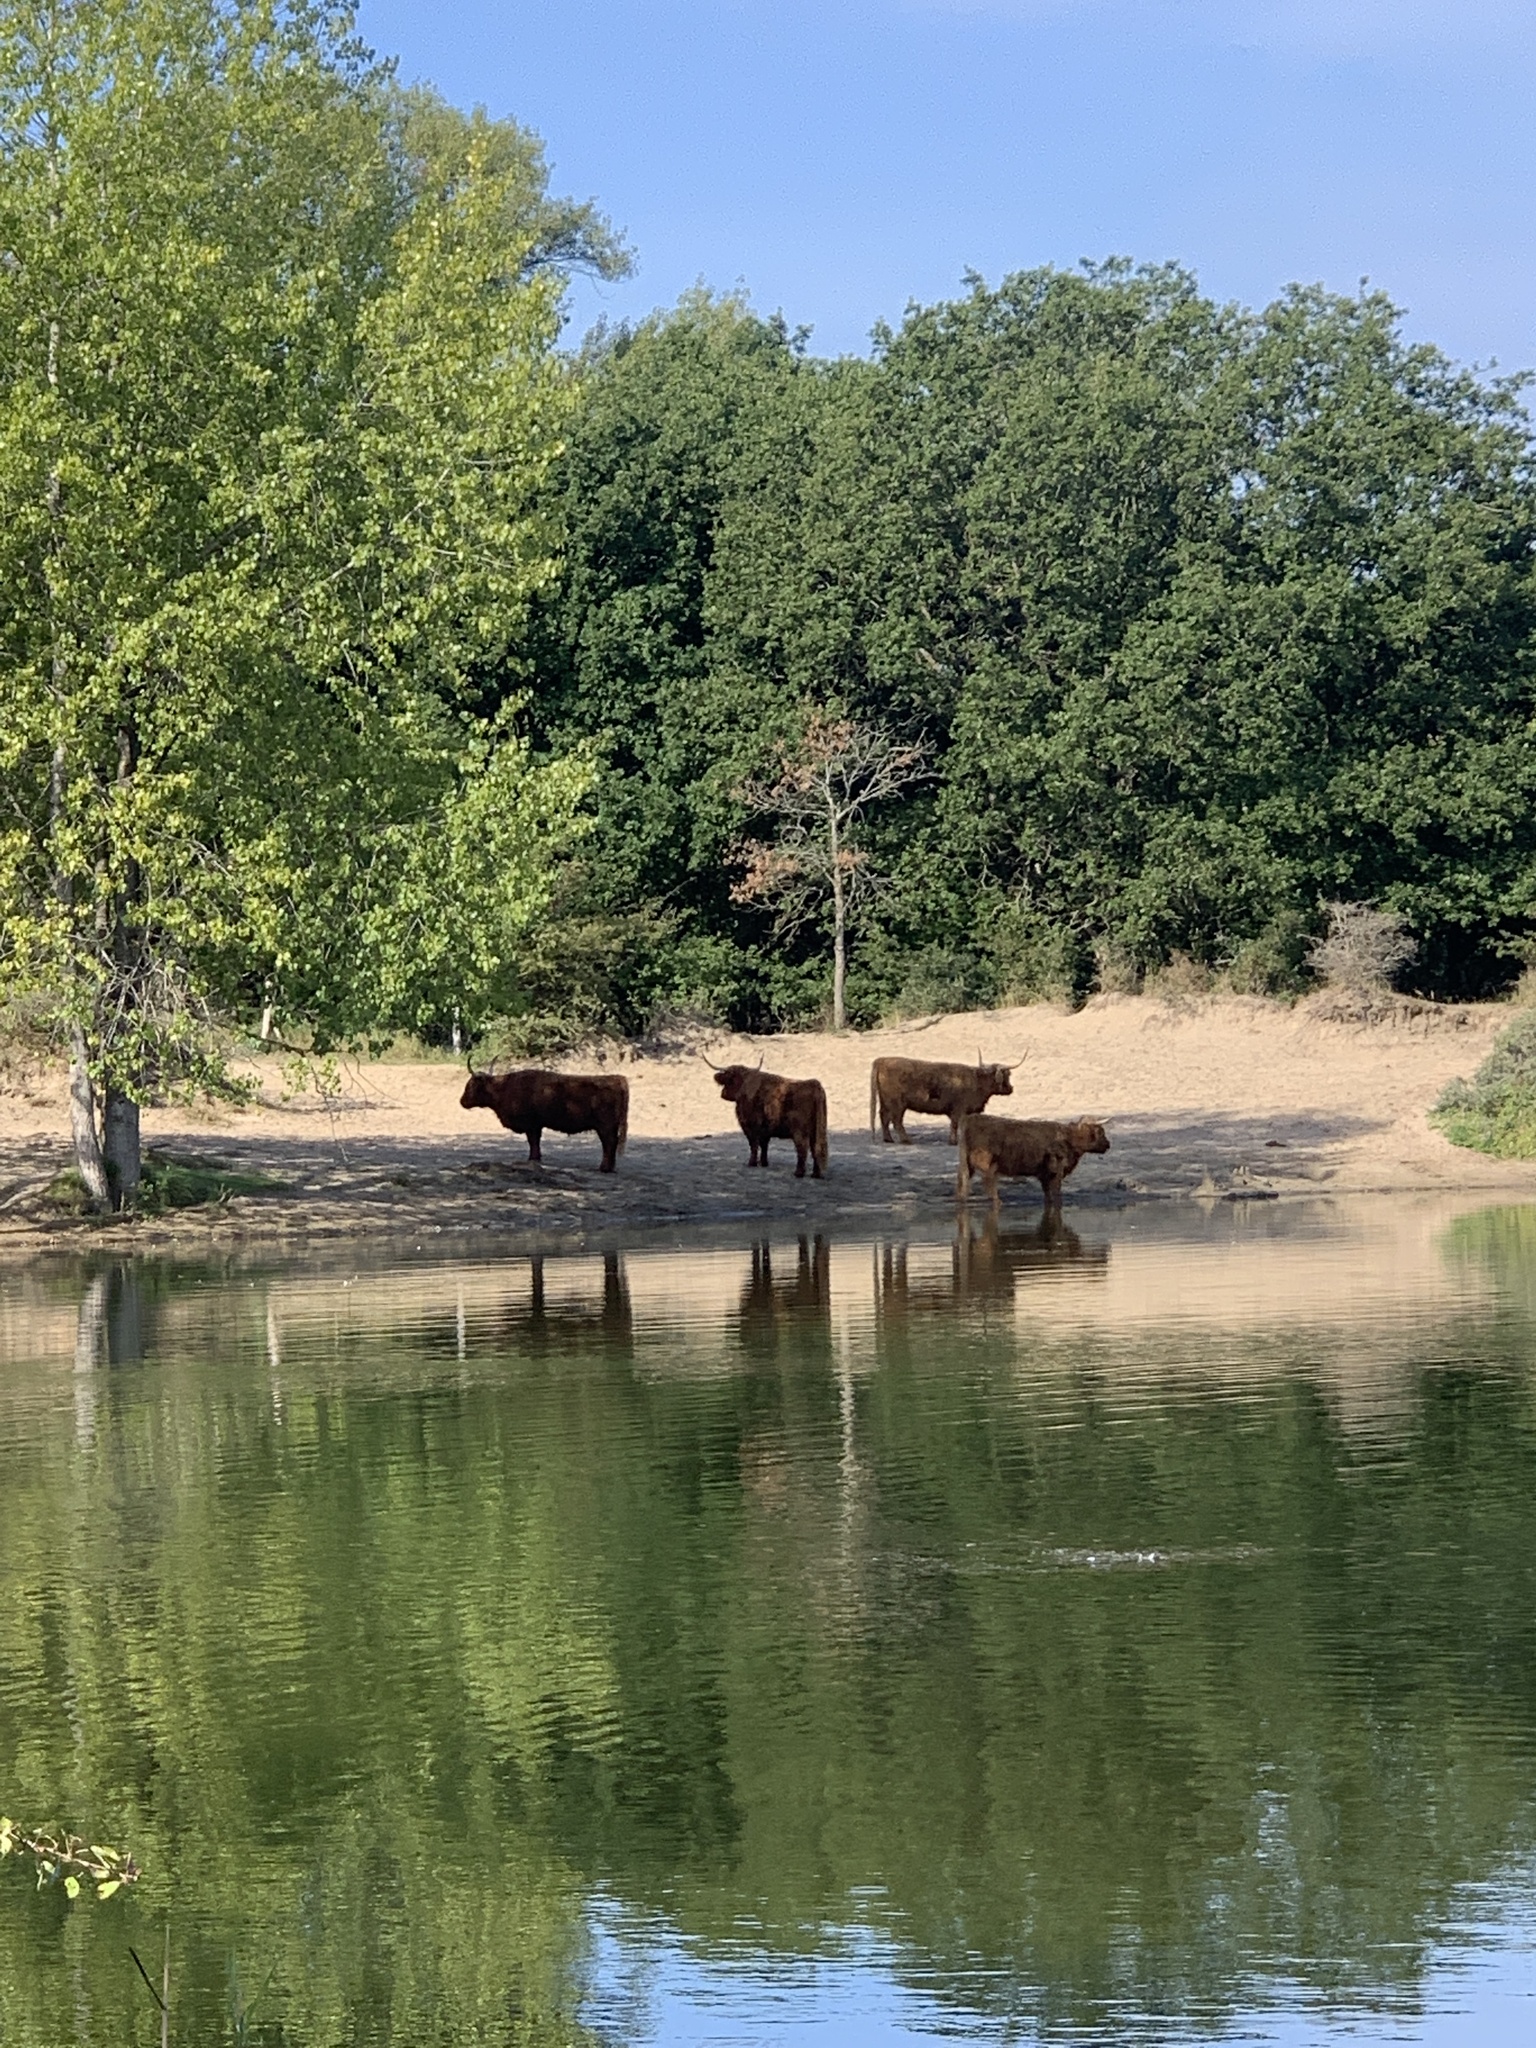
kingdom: Animalia
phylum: Chordata
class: Mammalia
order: Artiodactyla
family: Bovidae
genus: Bos
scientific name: Bos taurus
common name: Domesticated cattle
